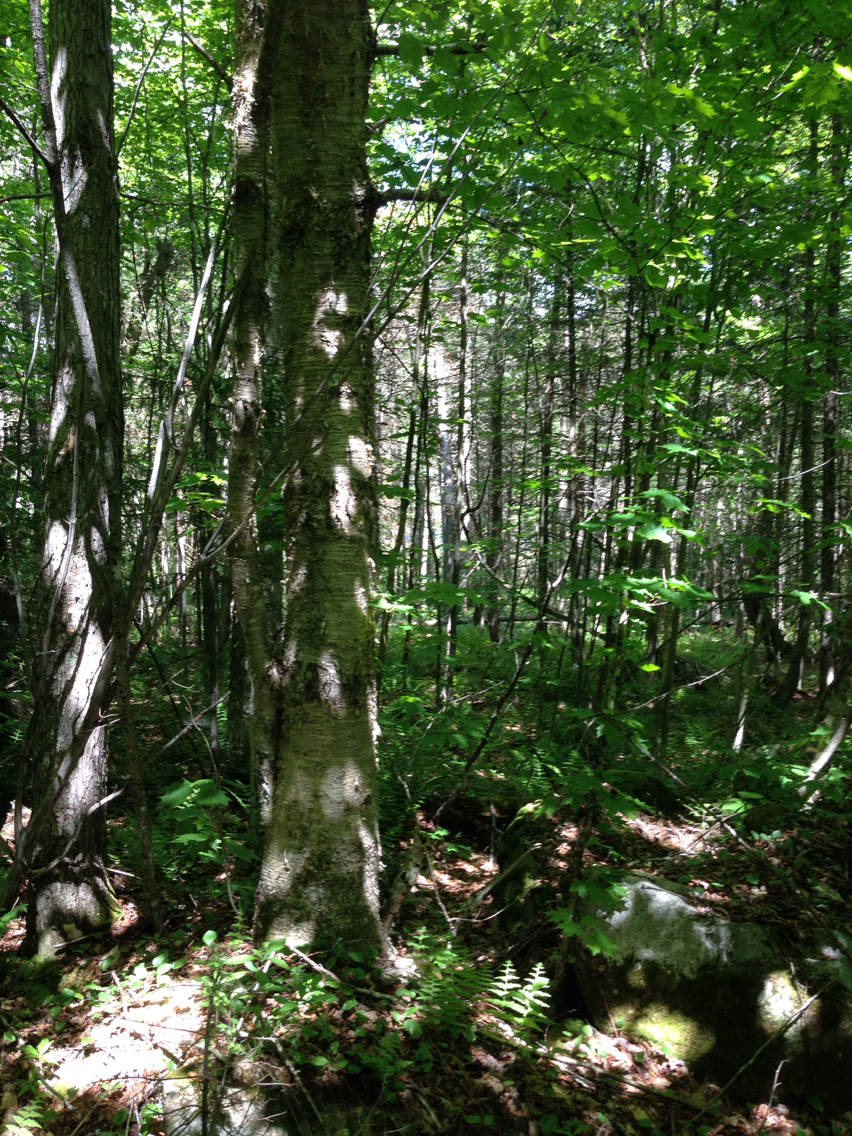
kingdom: Plantae
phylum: Tracheophyta
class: Magnoliopsida
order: Fagales
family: Betulaceae
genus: Betula
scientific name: Betula alleghaniensis
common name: Yellow birch
